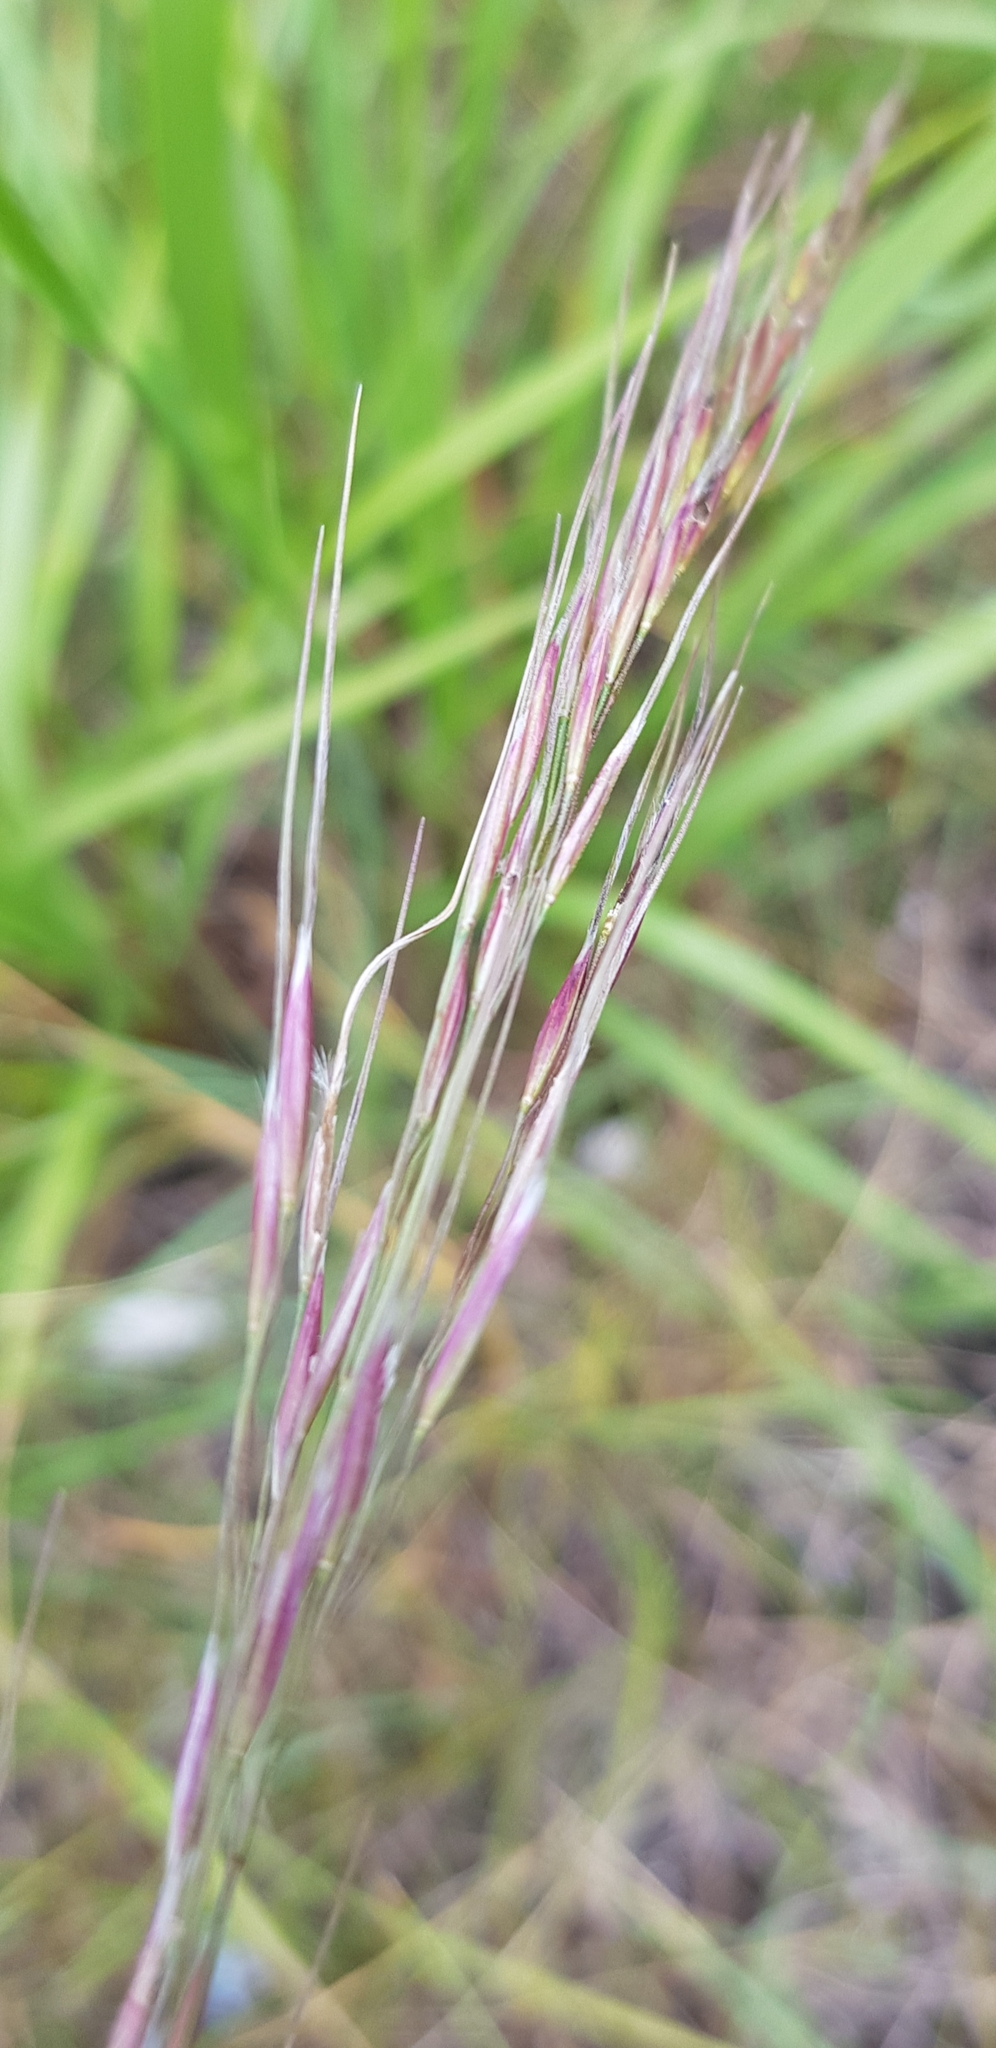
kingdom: Plantae
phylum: Tracheophyta
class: Liliopsida
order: Poales
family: Poaceae
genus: Achnatherum
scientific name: Achnatherum sibiricum
